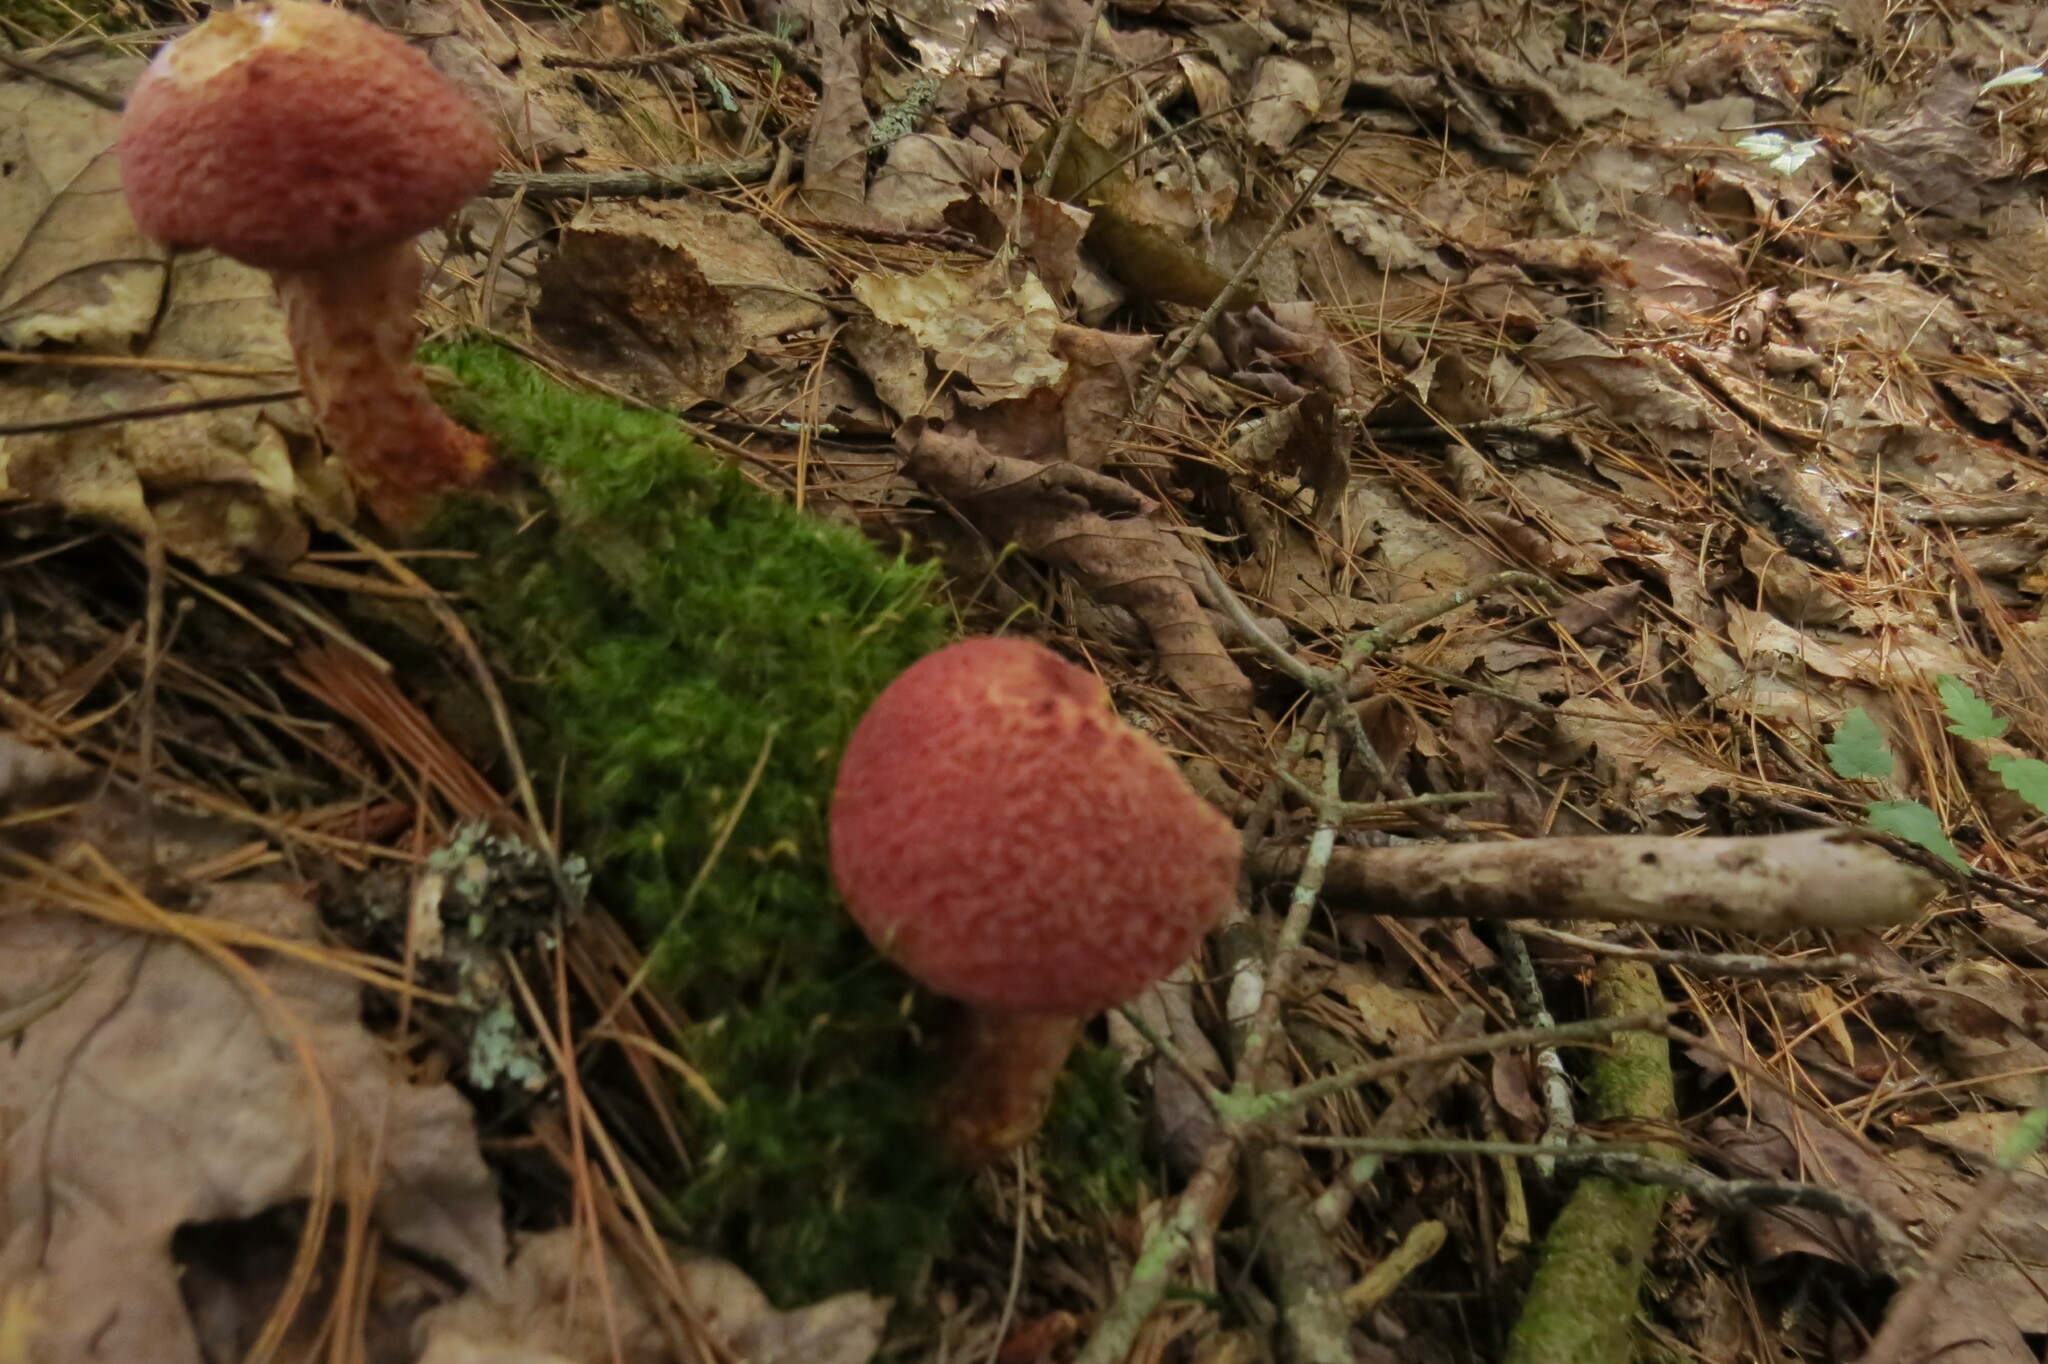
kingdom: Fungi
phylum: Basidiomycota
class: Agaricomycetes
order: Boletales
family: Suillaceae
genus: Suillus
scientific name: Suillus spraguei
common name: Painted suillus
